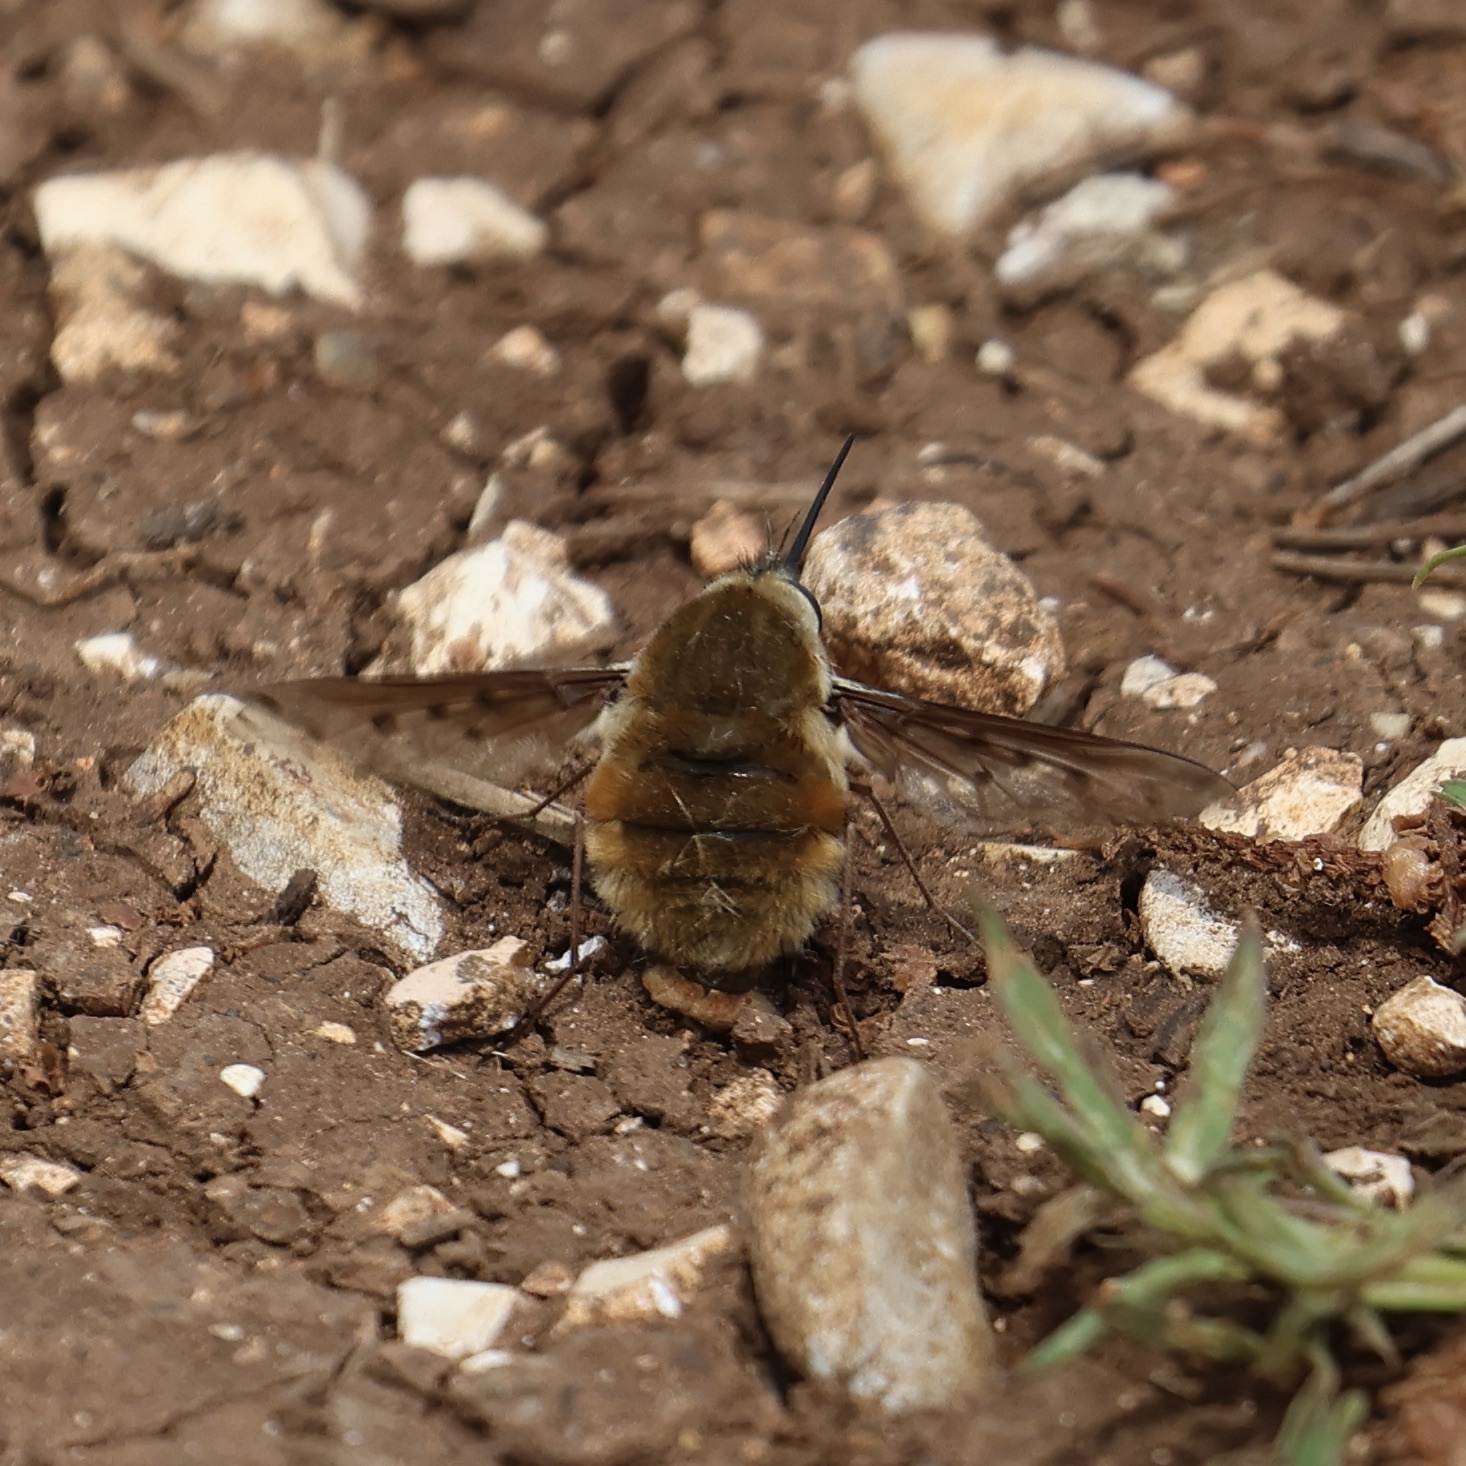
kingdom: Animalia
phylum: Arthropoda
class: Insecta
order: Diptera
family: Bombyliidae
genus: Bombylius
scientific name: Bombylius discolor
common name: Dotted bee-fly
